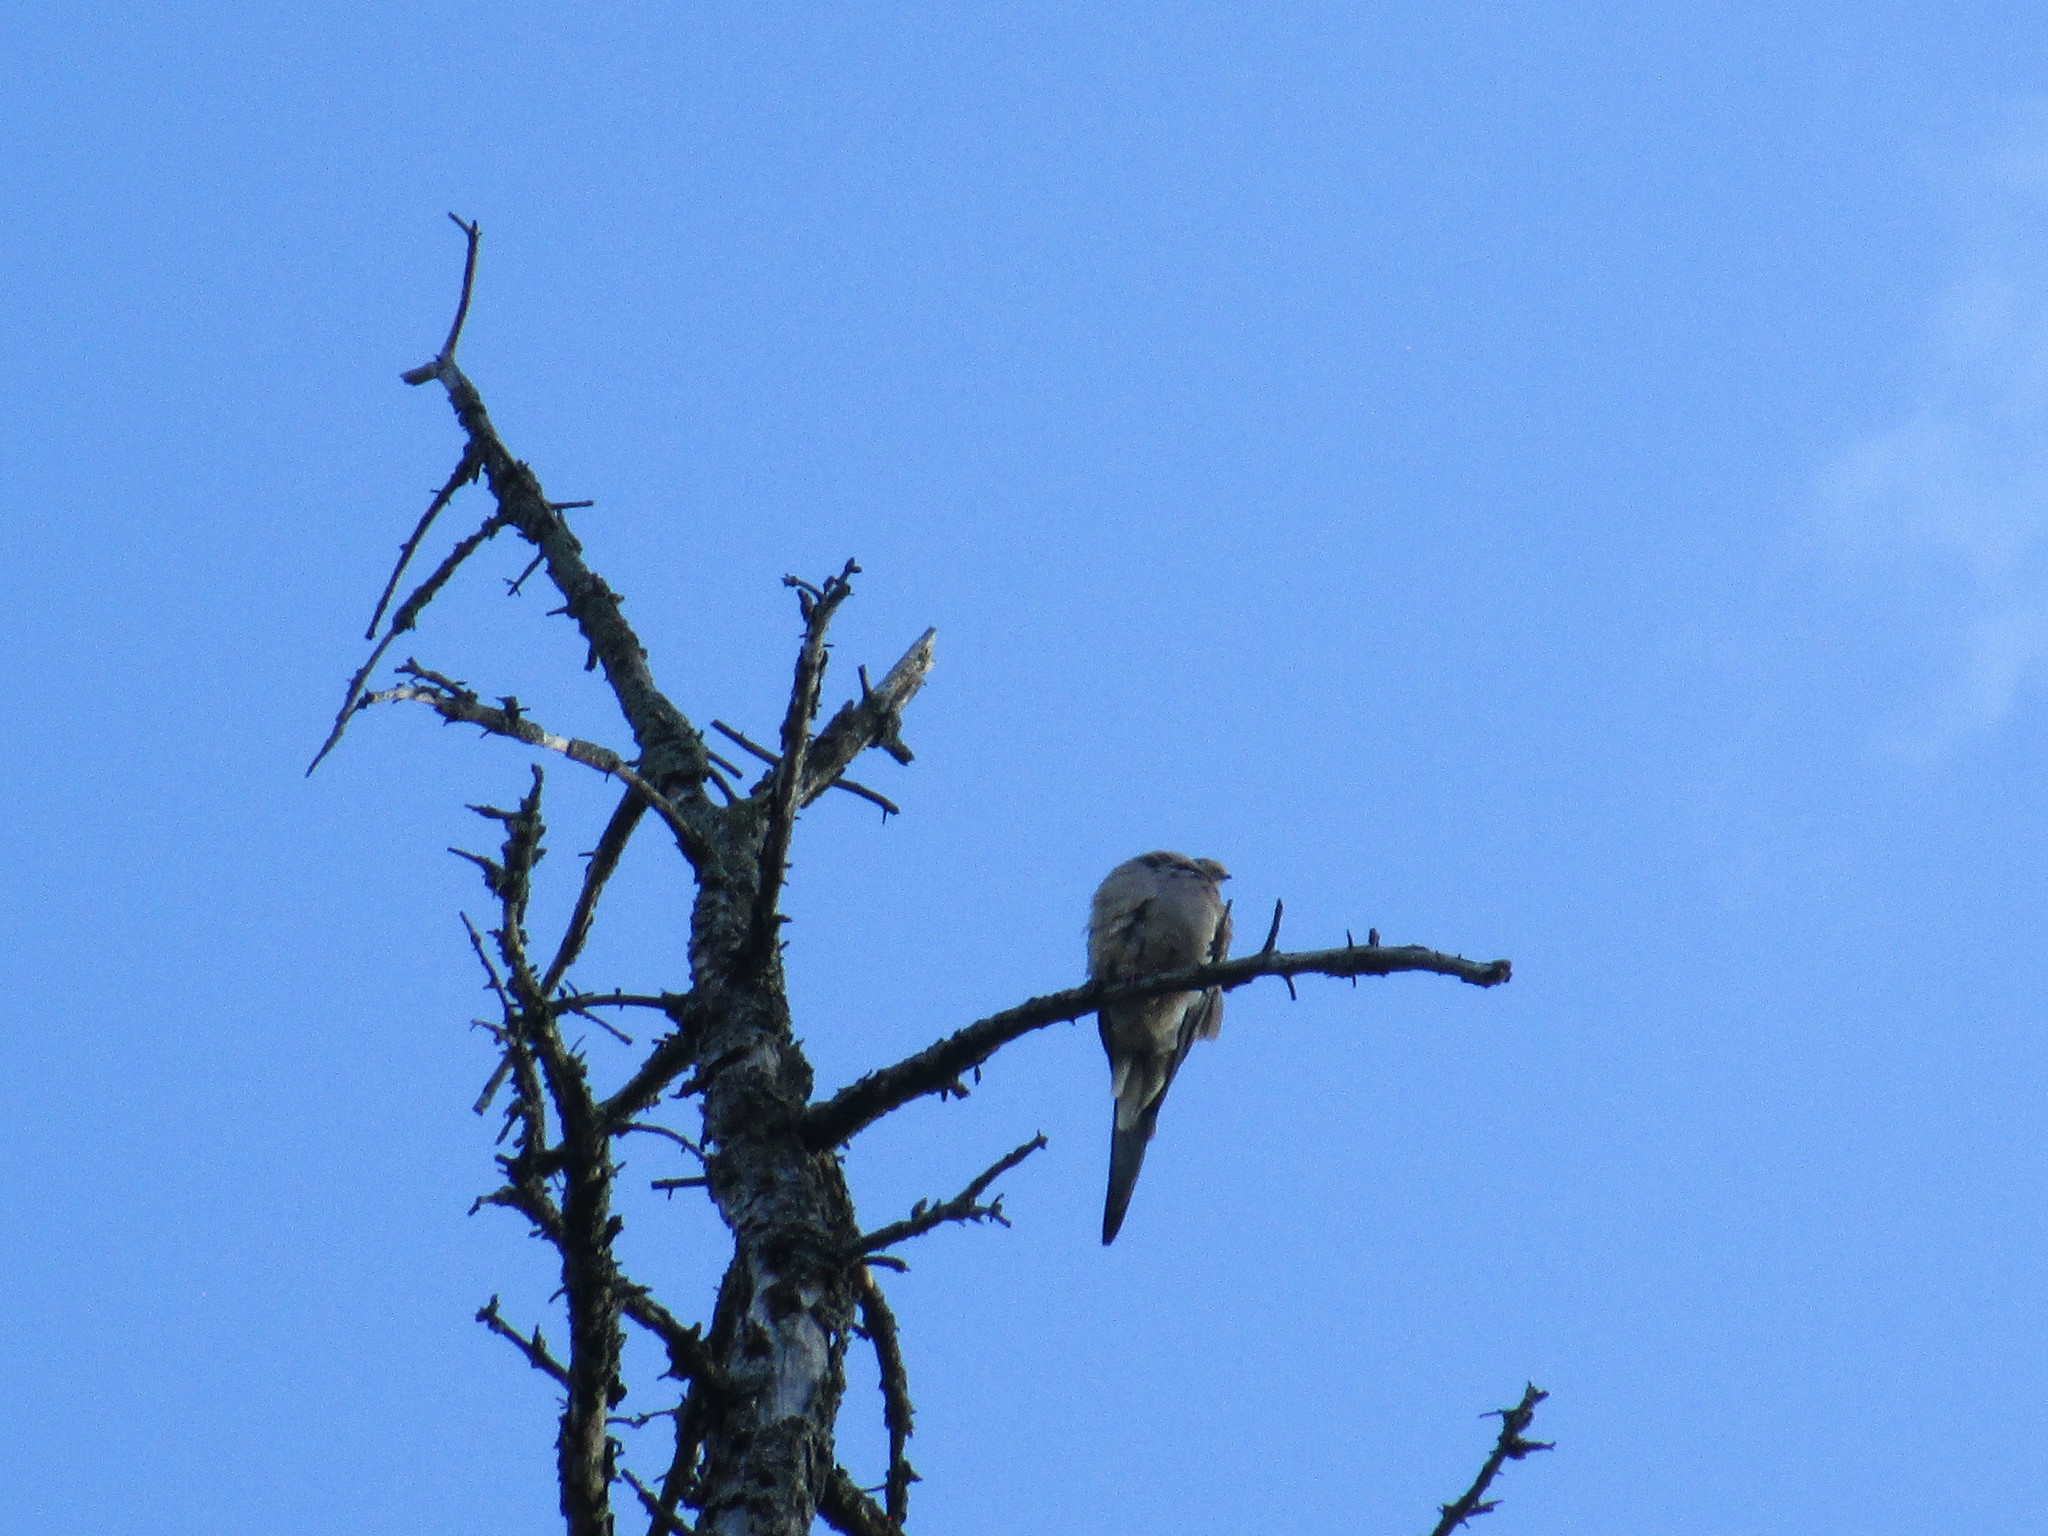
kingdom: Animalia
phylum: Chordata
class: Aves
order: Columbiformes
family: Columbidae
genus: Zenaida
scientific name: Zenaida macroura
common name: Mourning dove
